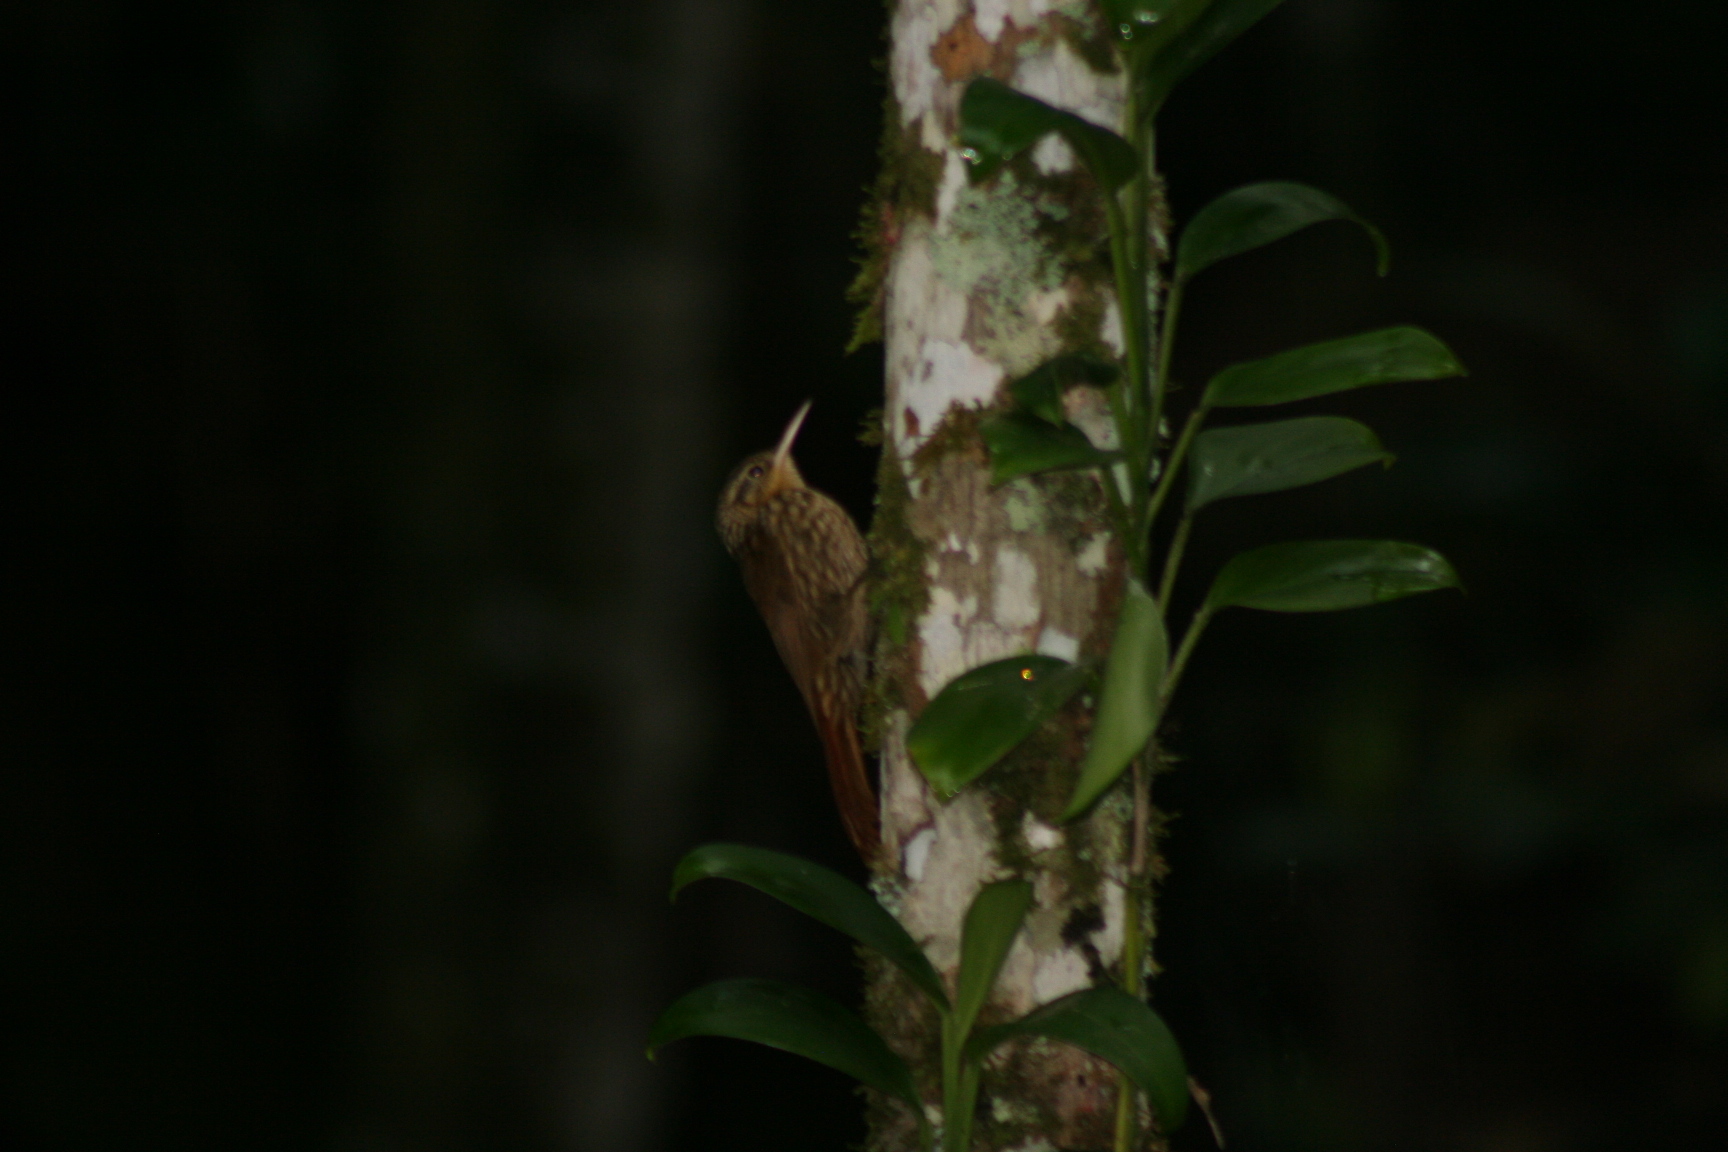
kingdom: Animalia
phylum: Chordata
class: Aves
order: Passeriformes
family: Furnariidae
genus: Xiphorhynchus
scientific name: Xiphorhynchus fuscus
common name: Lesser woodcreeper
